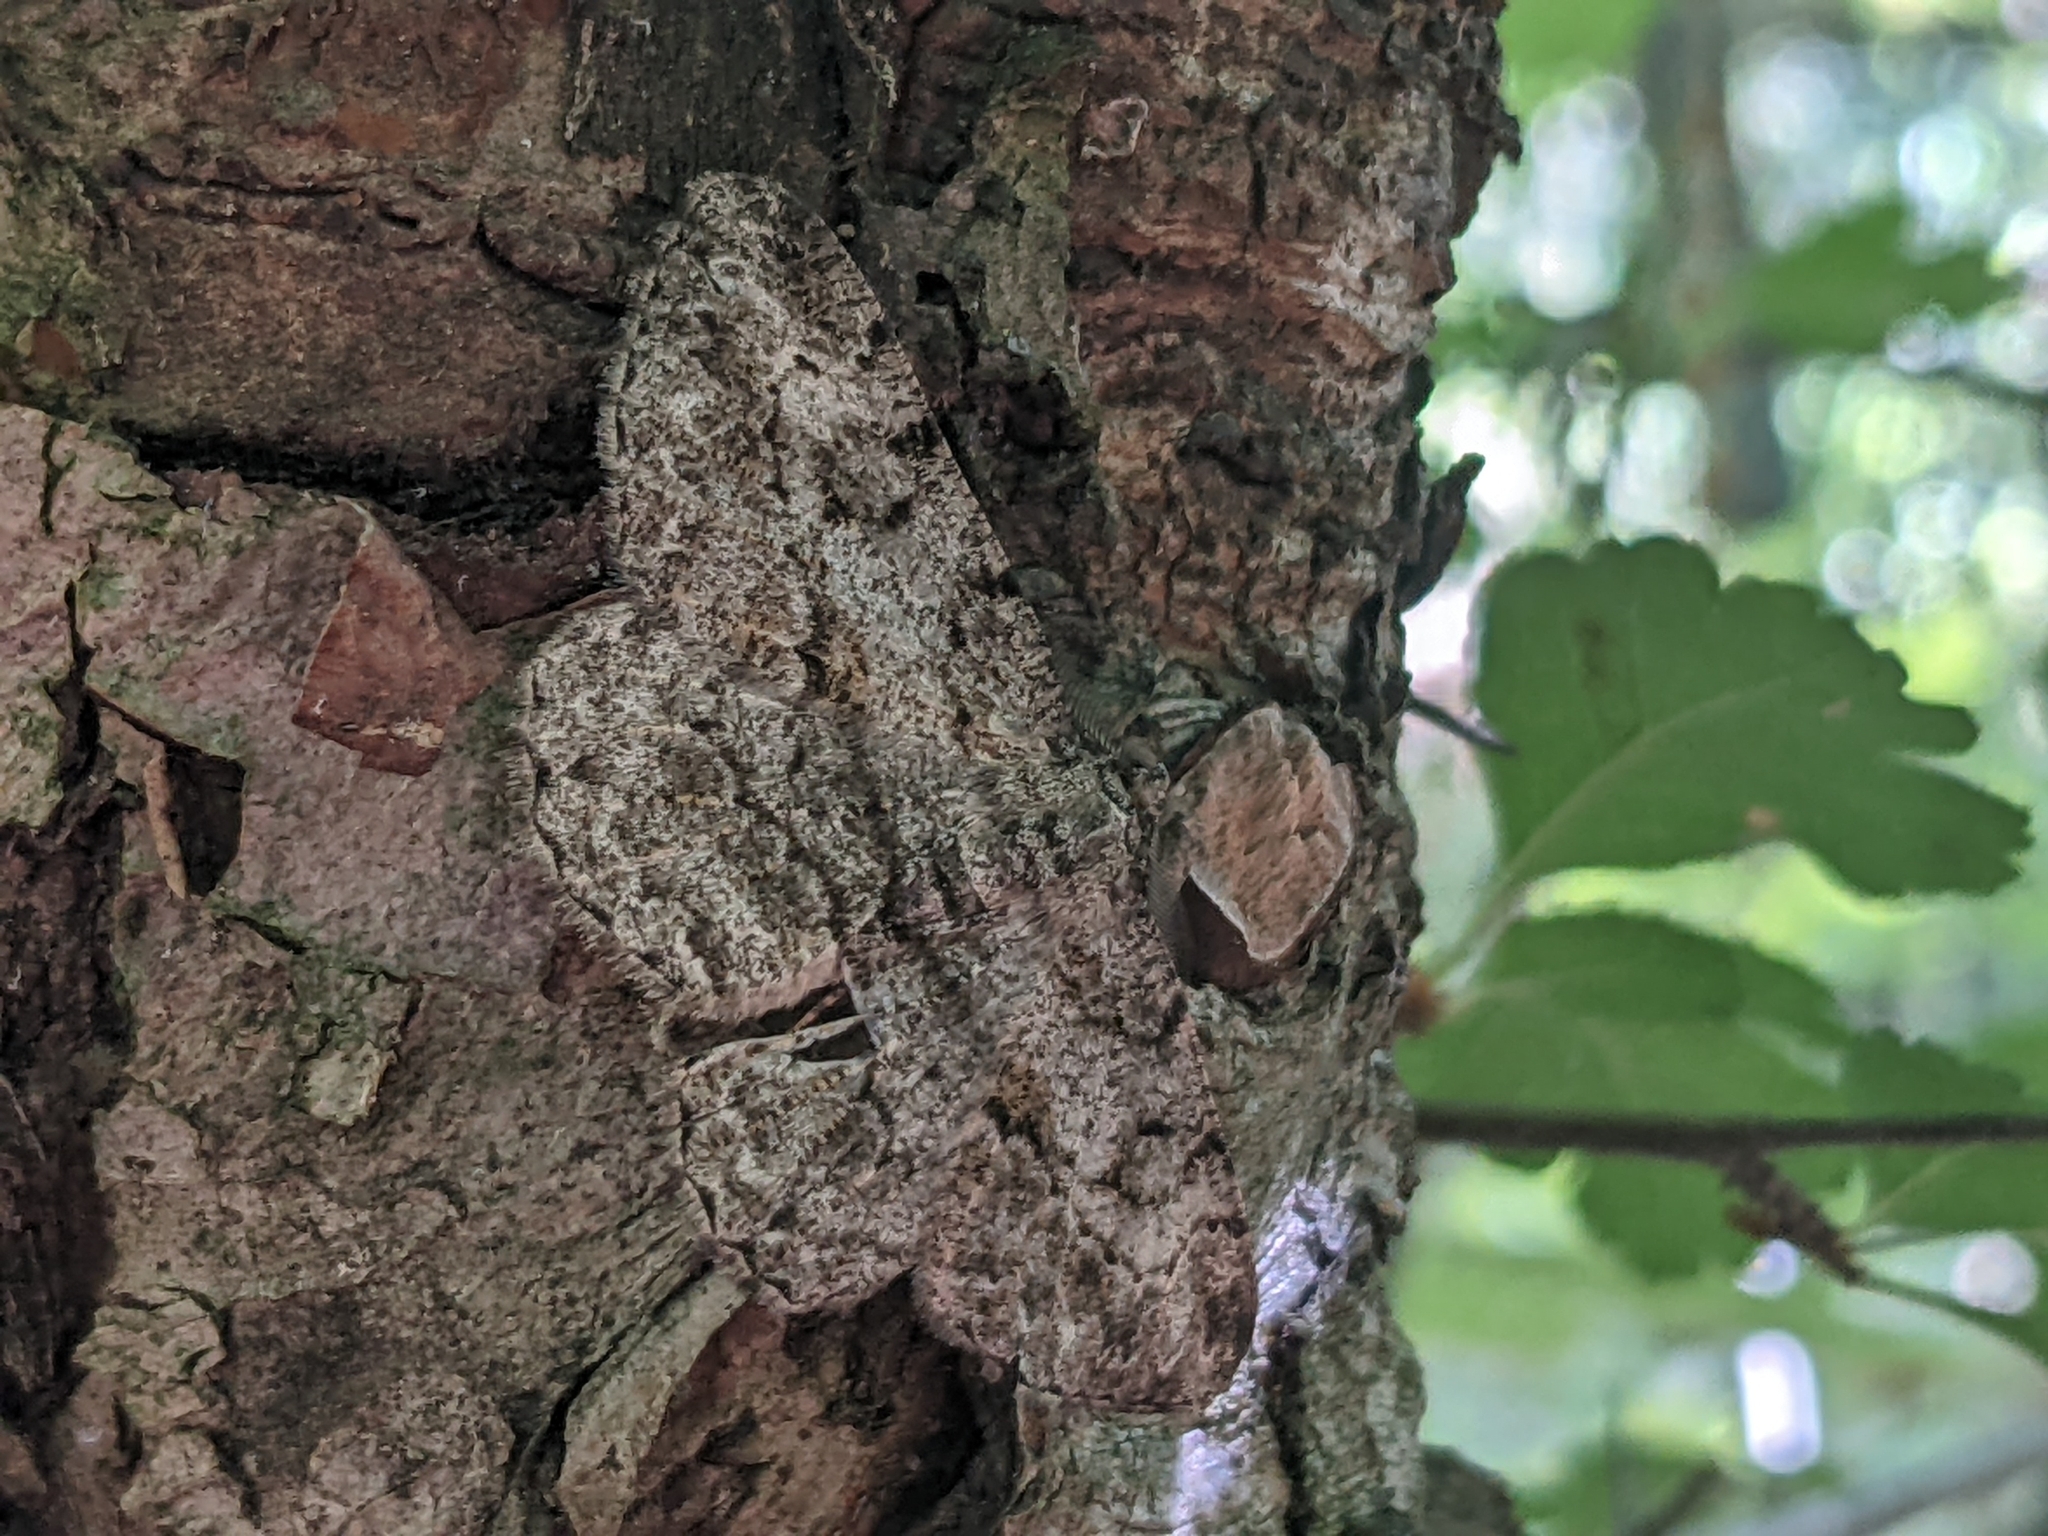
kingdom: Animalia
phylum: Arthropoda
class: Insecta
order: Lepidoptera
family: Geometridae
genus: Peribatodes
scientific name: Peribatodes rhomboidaria
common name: Willow beauty
